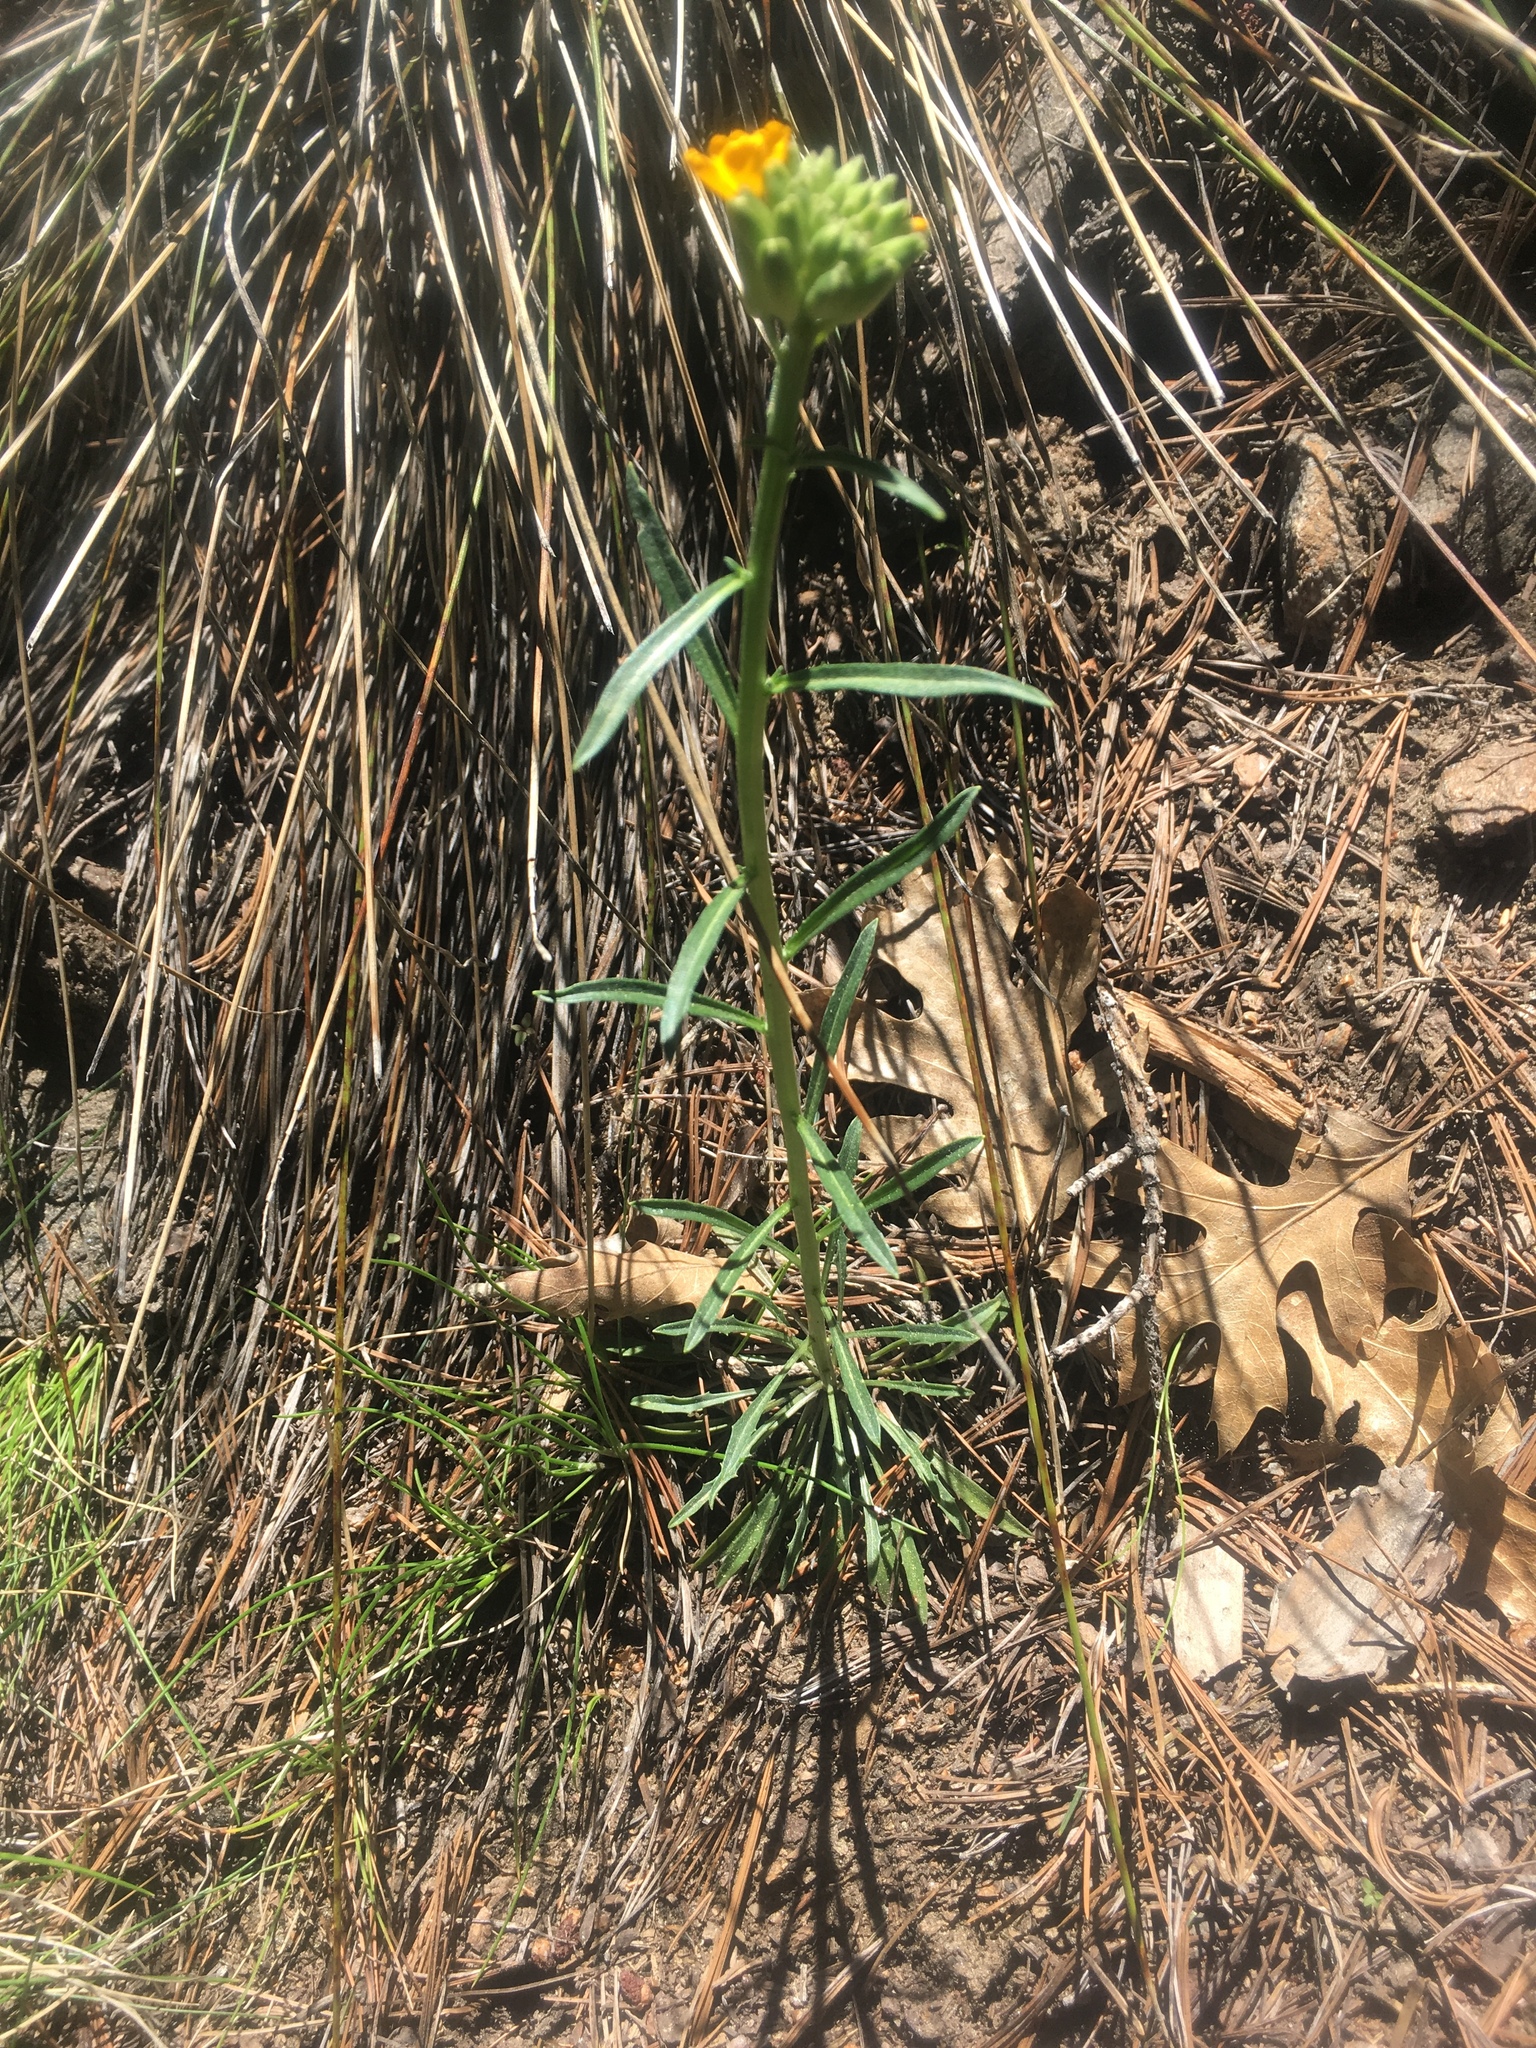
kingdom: Plantae
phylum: Tracheophyta
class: Magnoliopsida
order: Brassicales
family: Brassicaceae
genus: Erysimum
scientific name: Erysimum capitatum
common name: Western wallflower
